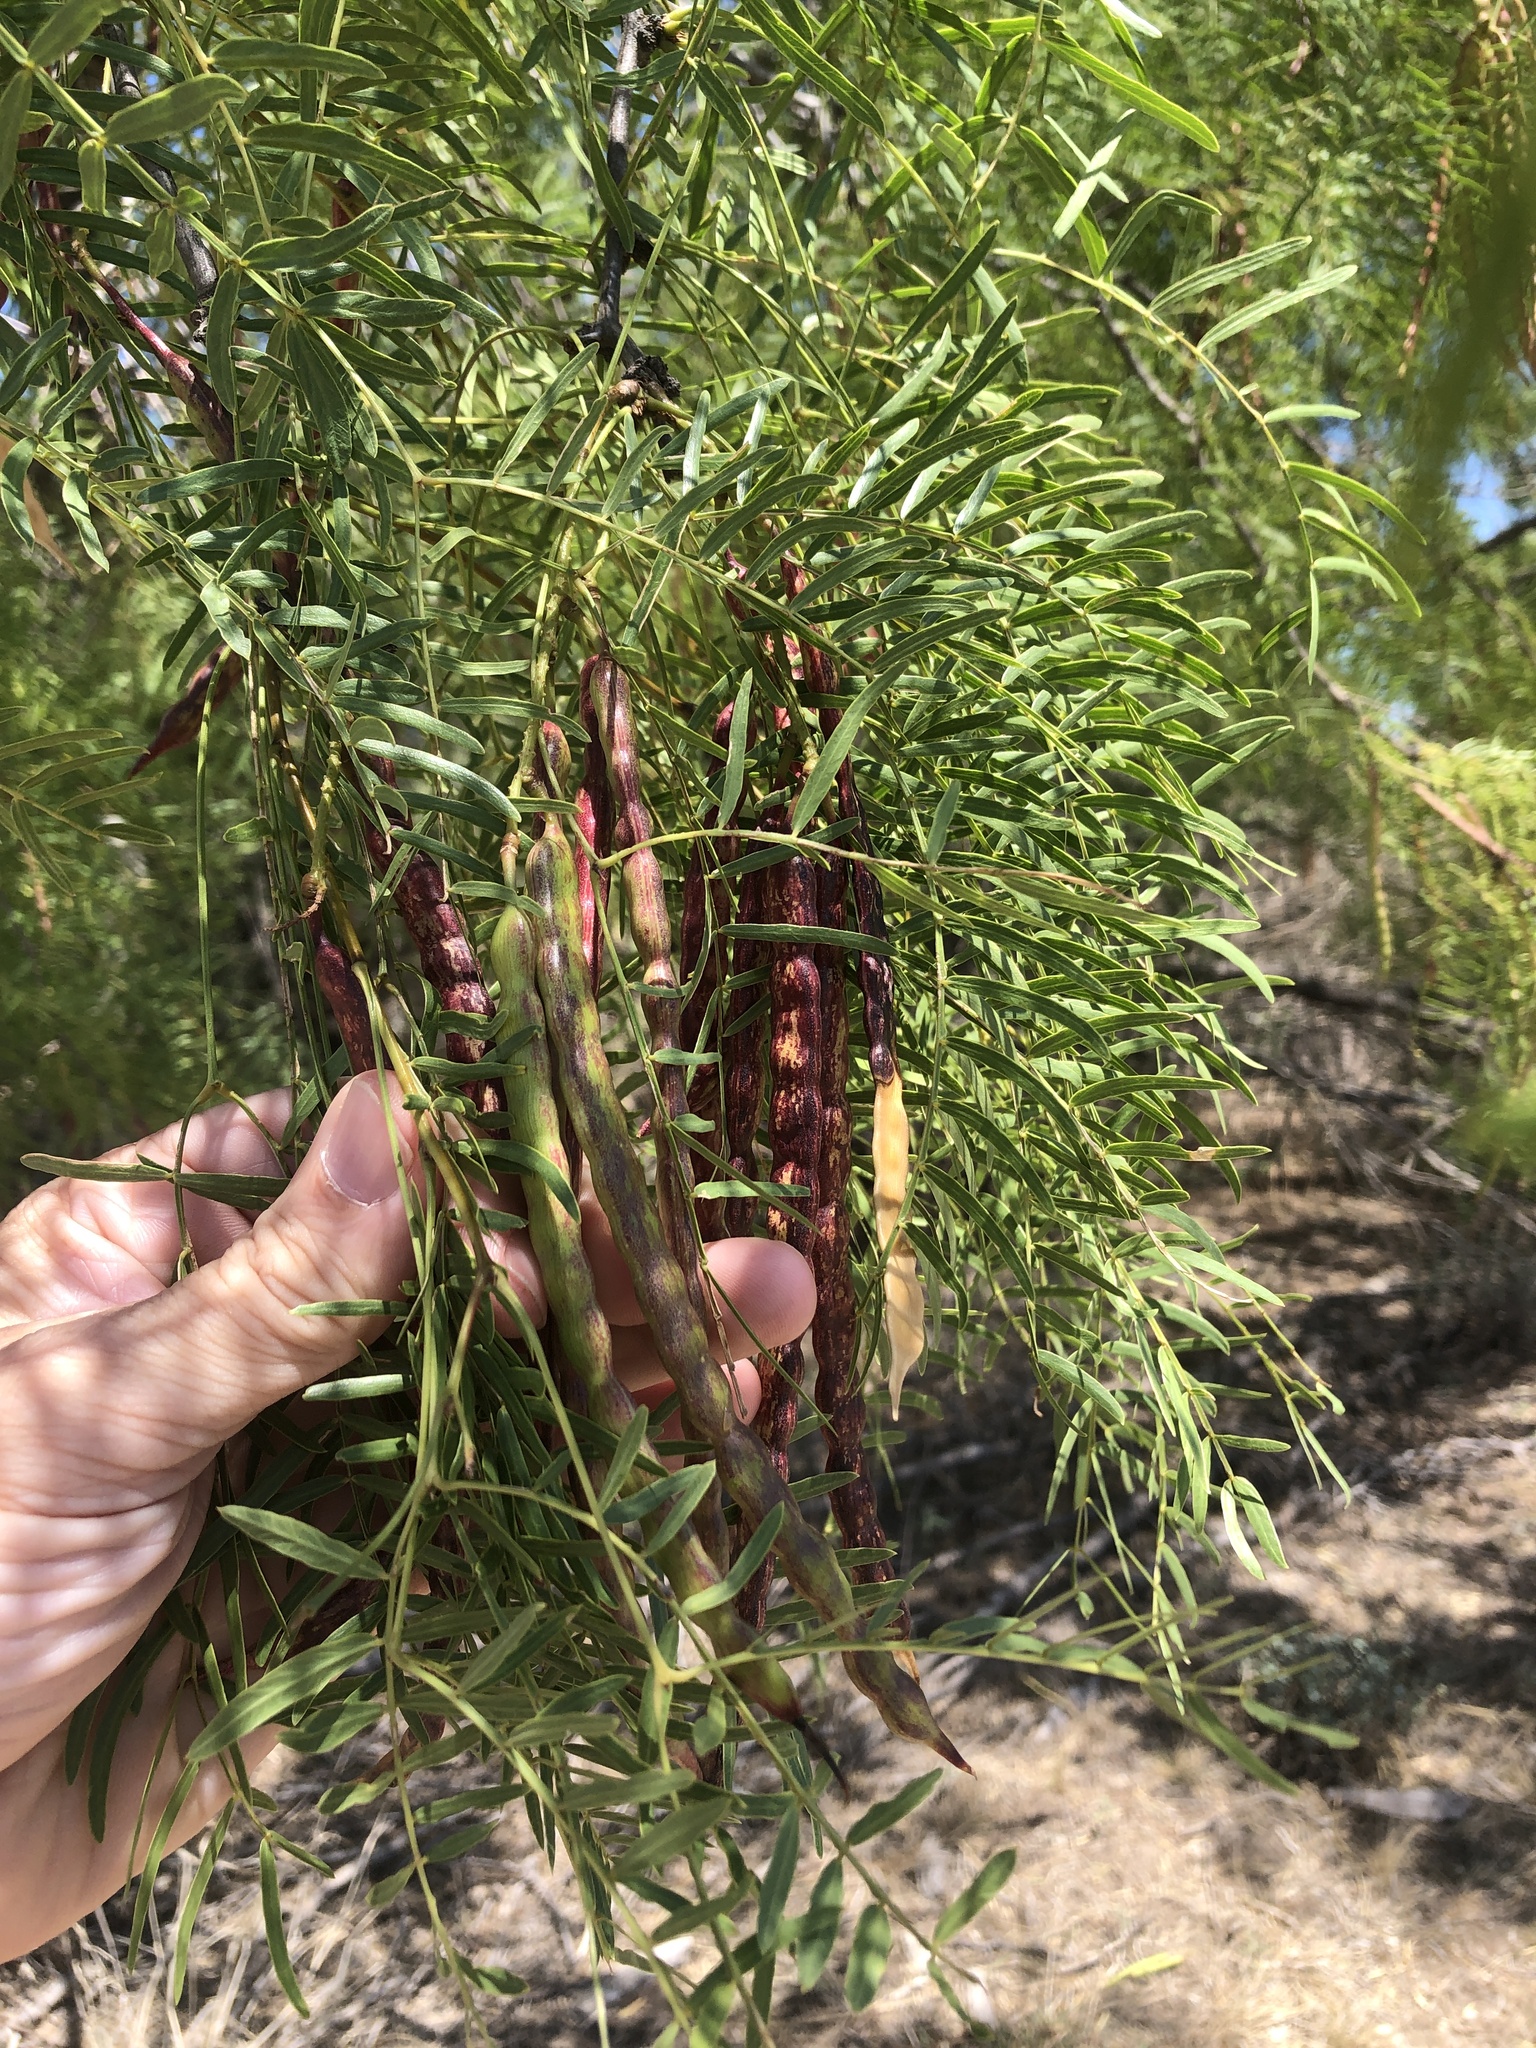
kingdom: Plantae
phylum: Tracheophyta
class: Magnoliopsida
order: Fabales
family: Fabaceae
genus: Prosopis
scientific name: Prosopis glandulosa
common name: Honey mesquite
